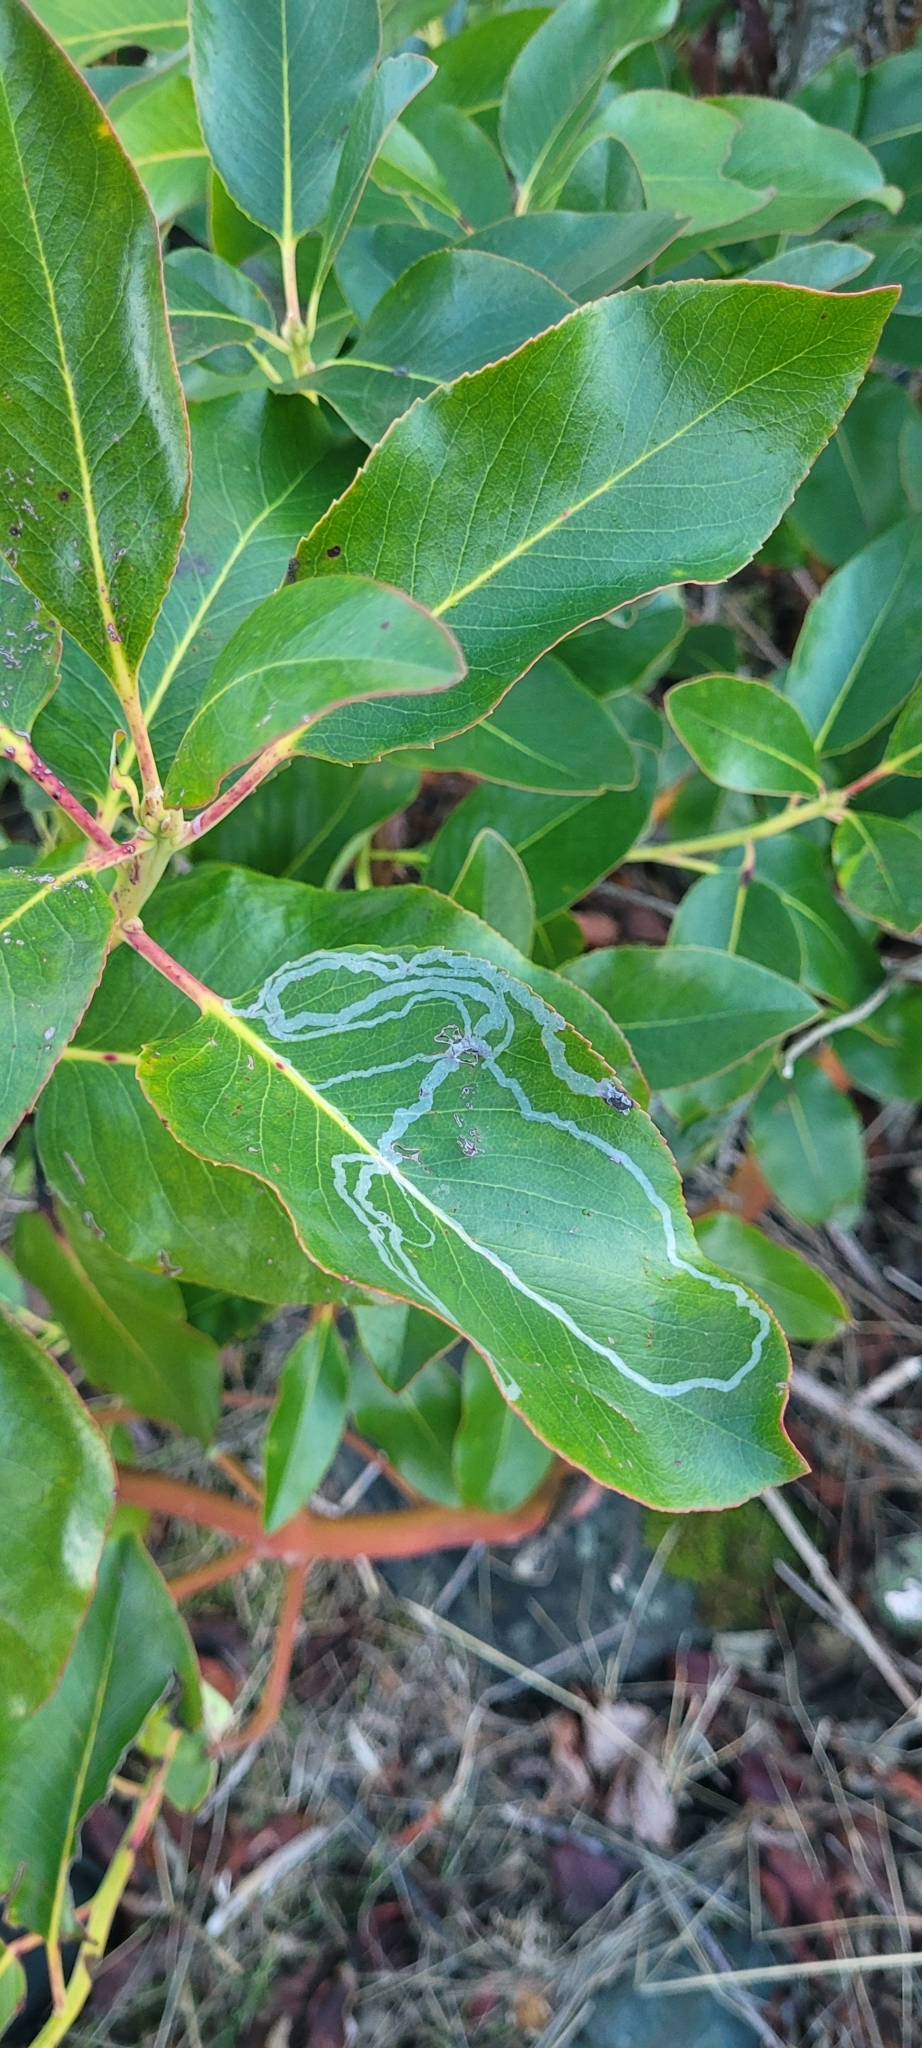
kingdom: Animalia
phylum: Arthropoda
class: Insecta
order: Lepidoptera
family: Gracillariidae
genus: Marmara
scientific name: Marmara arbutiella
